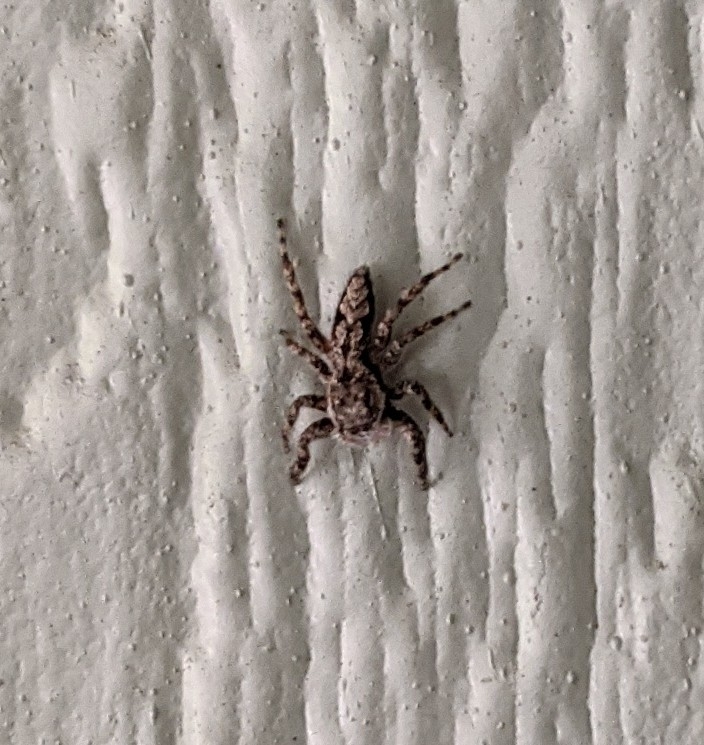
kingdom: Animalia
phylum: Arthropoda
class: Arachnida
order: Araneae
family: Salticidae
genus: Platycryptus
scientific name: Platycryptus undatus
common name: Tan jumping spider
